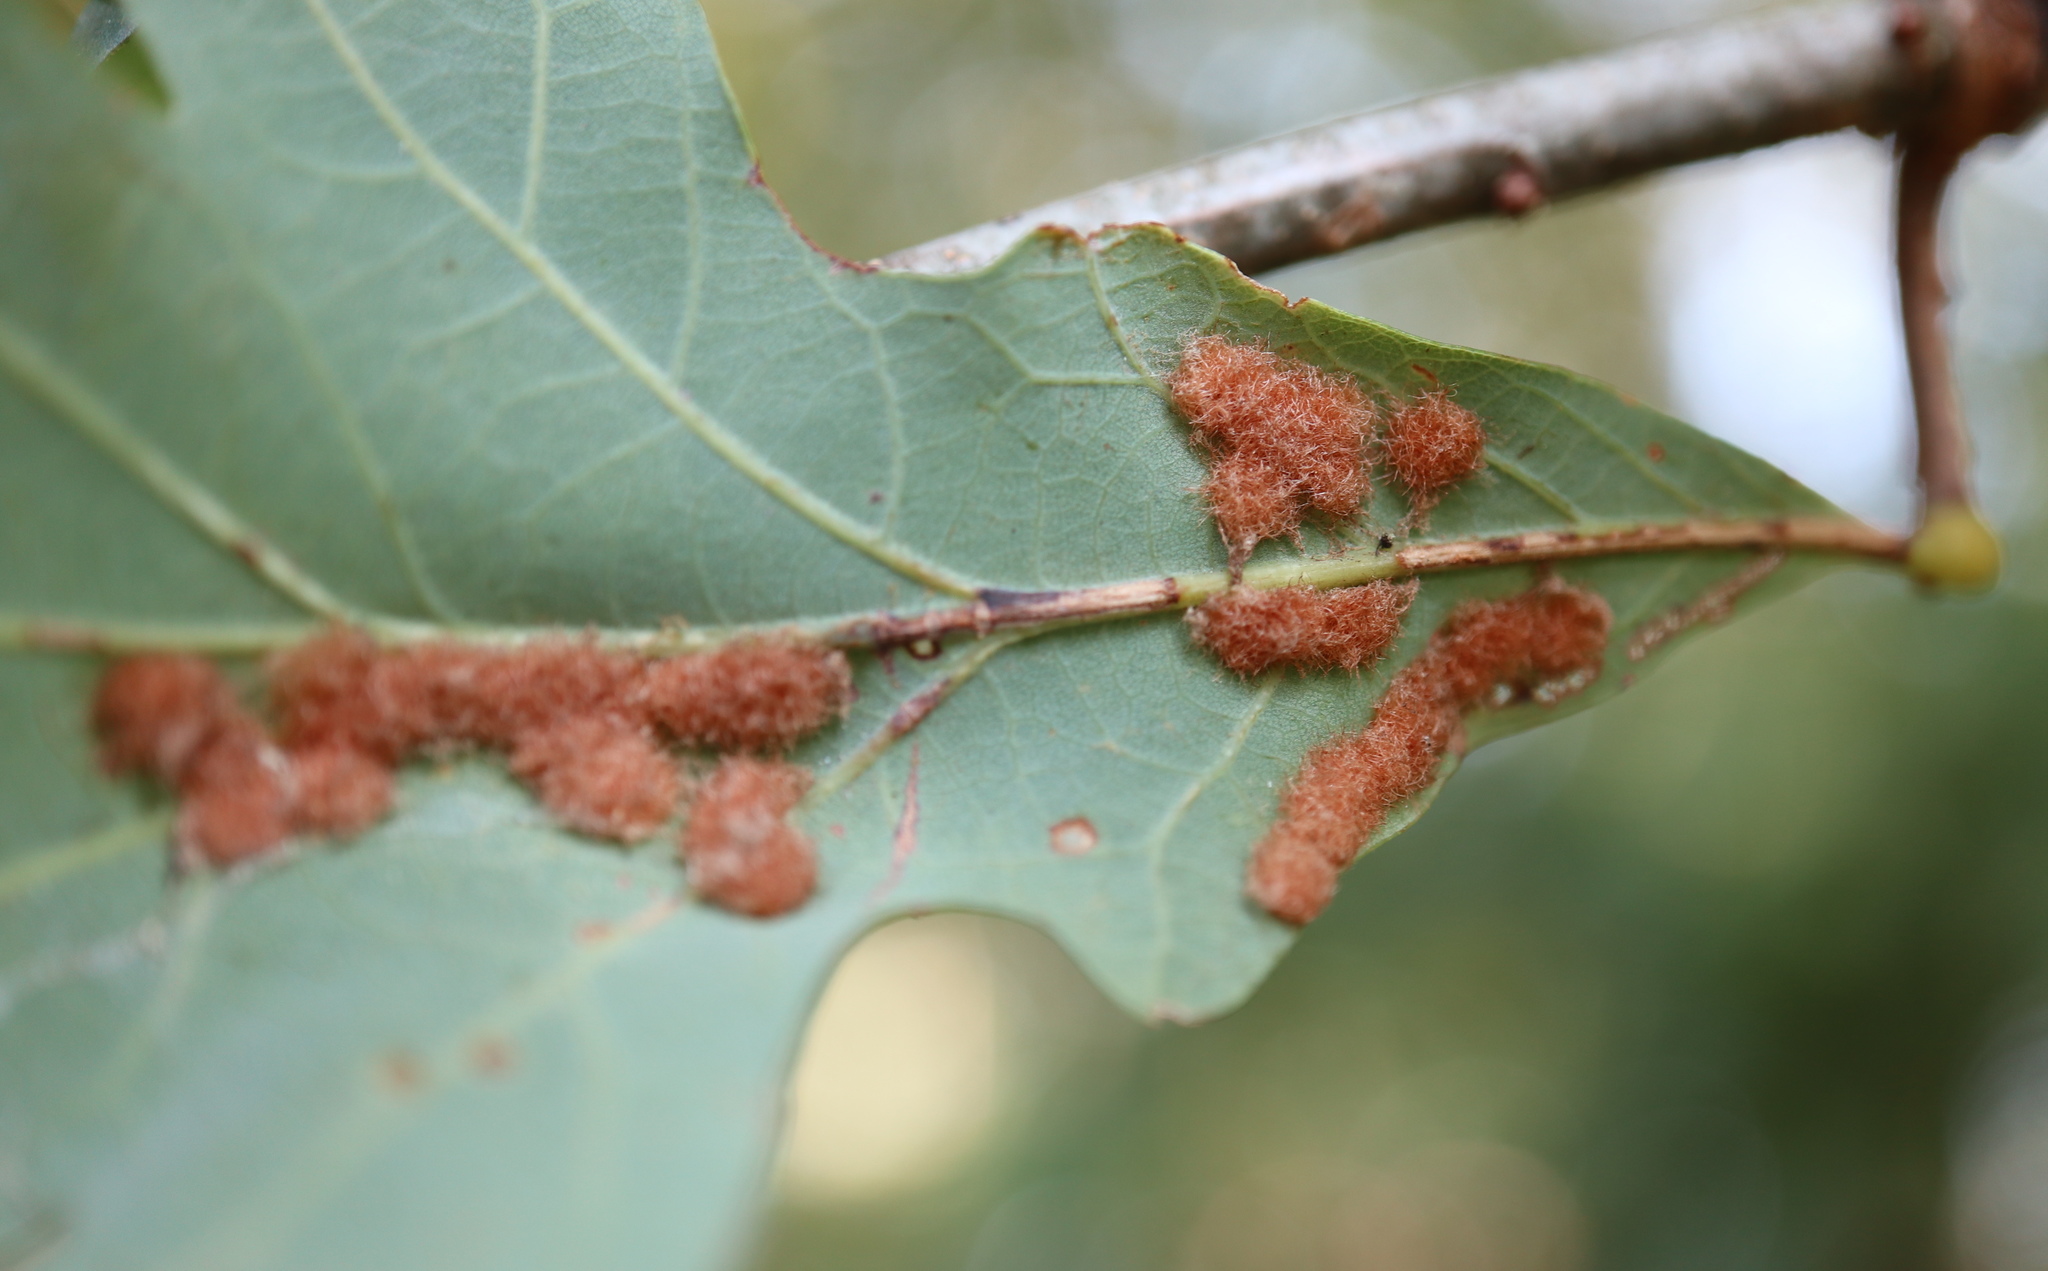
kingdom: Animalia
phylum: Arthropoda
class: Insecta
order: Hymenoptera
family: Cynipidae
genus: Neuroterus
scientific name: Neuroterus quercusverrucarum
